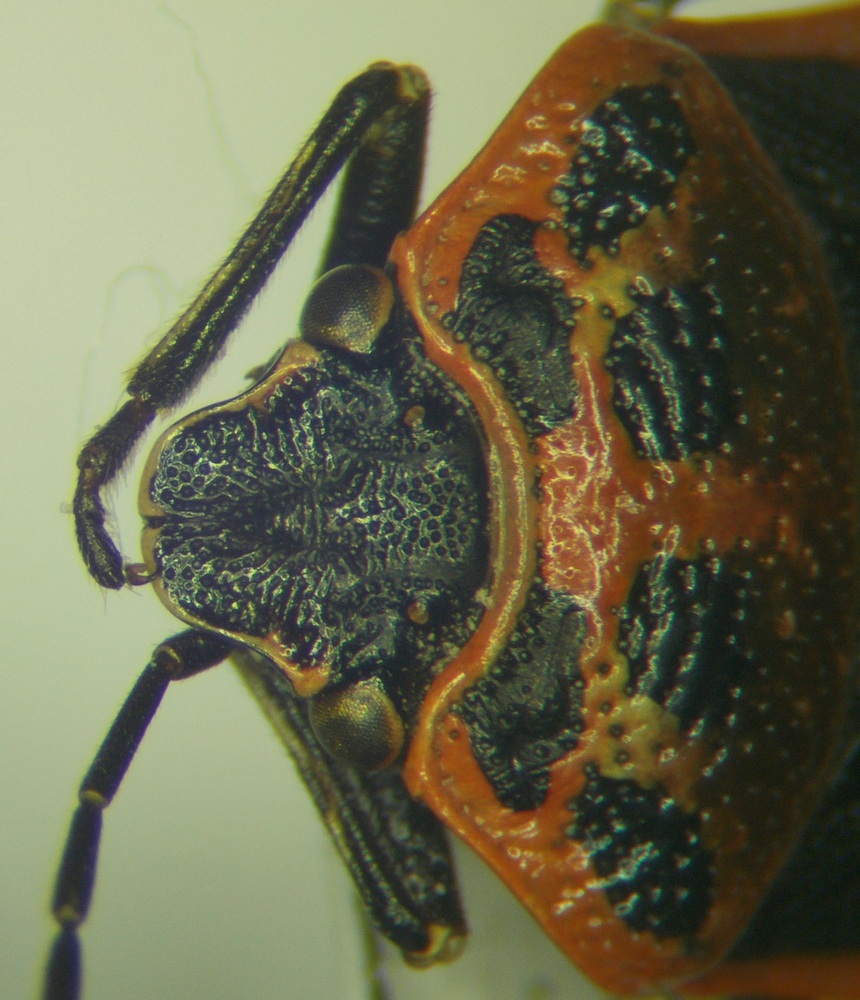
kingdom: Animalia
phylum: Arthropoda
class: Insecta
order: Hemiptera
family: Pentatomidae
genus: Eurydema
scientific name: Eurydema ornata
